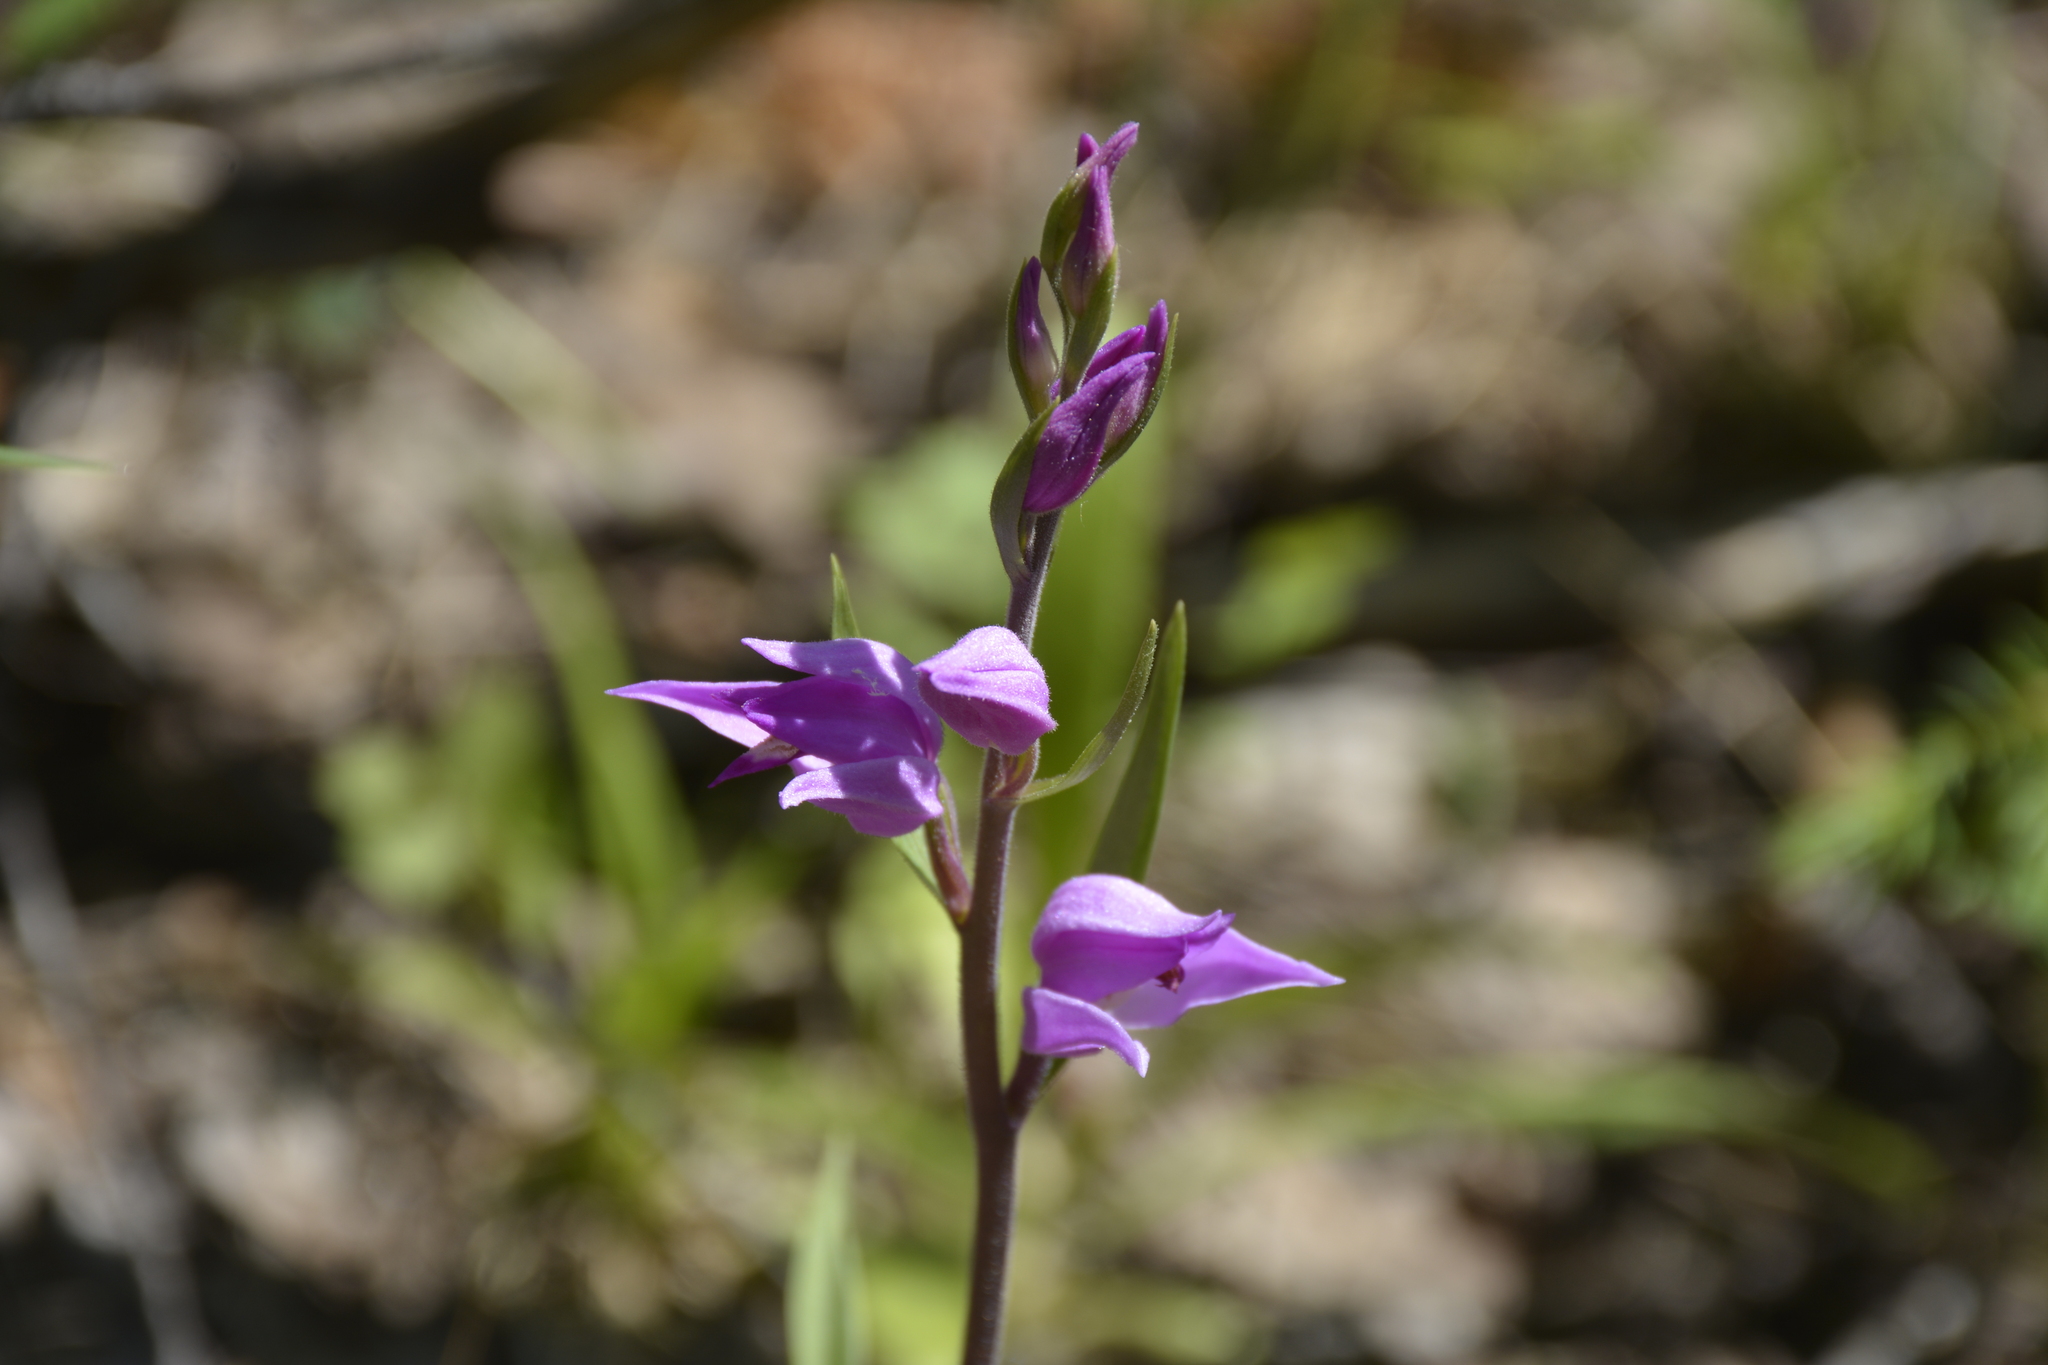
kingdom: Plantae
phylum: Tracheophyta
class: Liliopsida
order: Asparagales
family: Orchidaceae
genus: Cephalanthera
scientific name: Cephalanthera rubra
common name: Red helleborine
